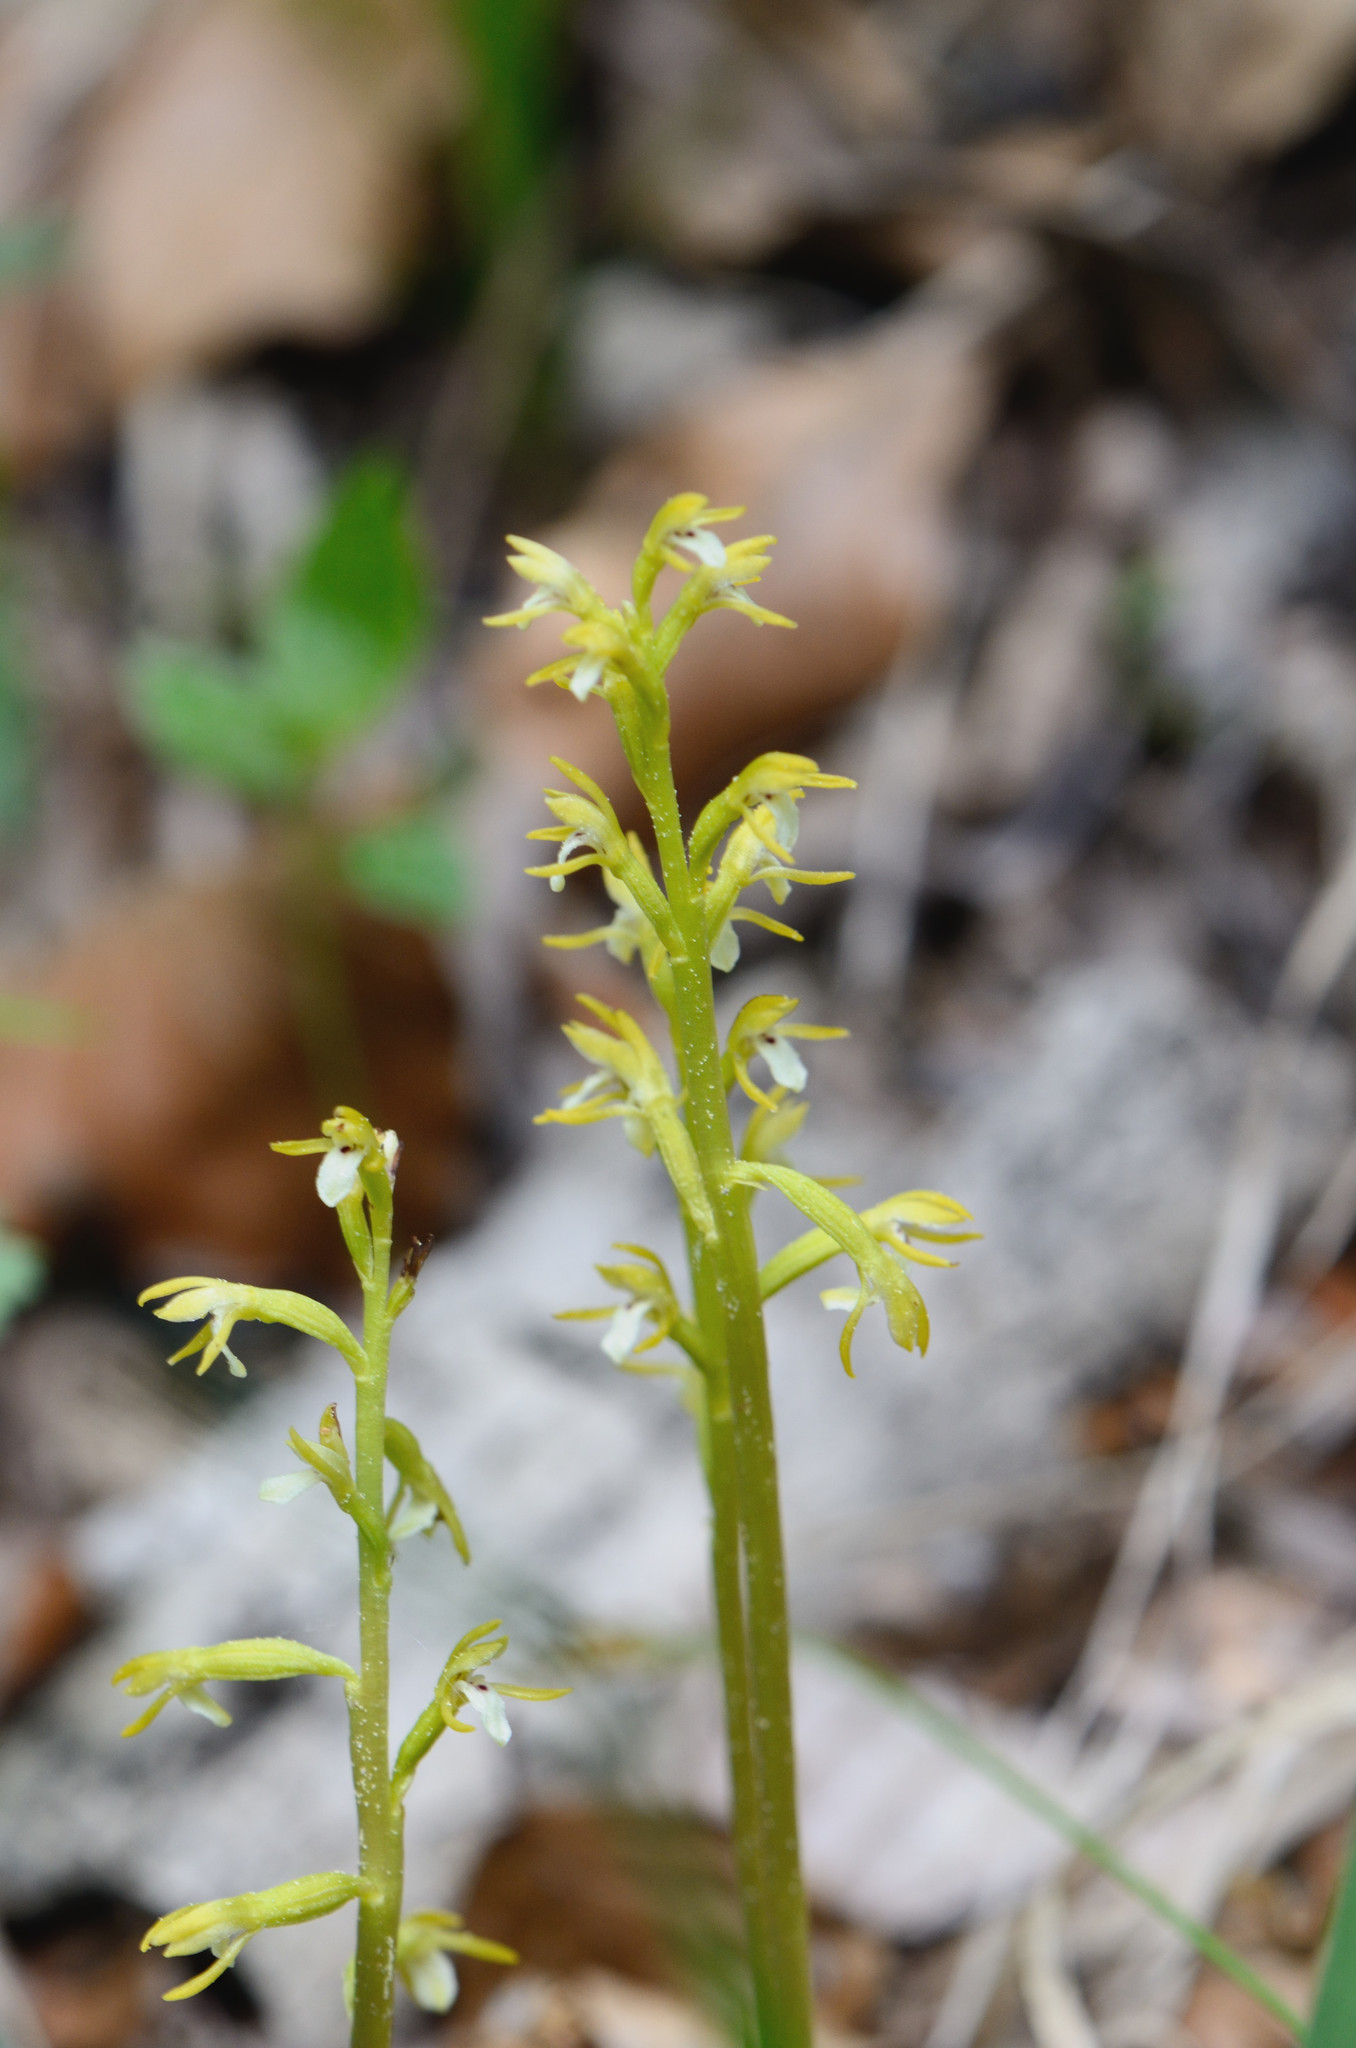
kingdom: Plantae
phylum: Tracheophyta
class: Liliopsida
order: Asparagales
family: Orchidaceae
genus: Corallorhiza
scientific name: Corallorhiza trifida
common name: Yellow coralroot
